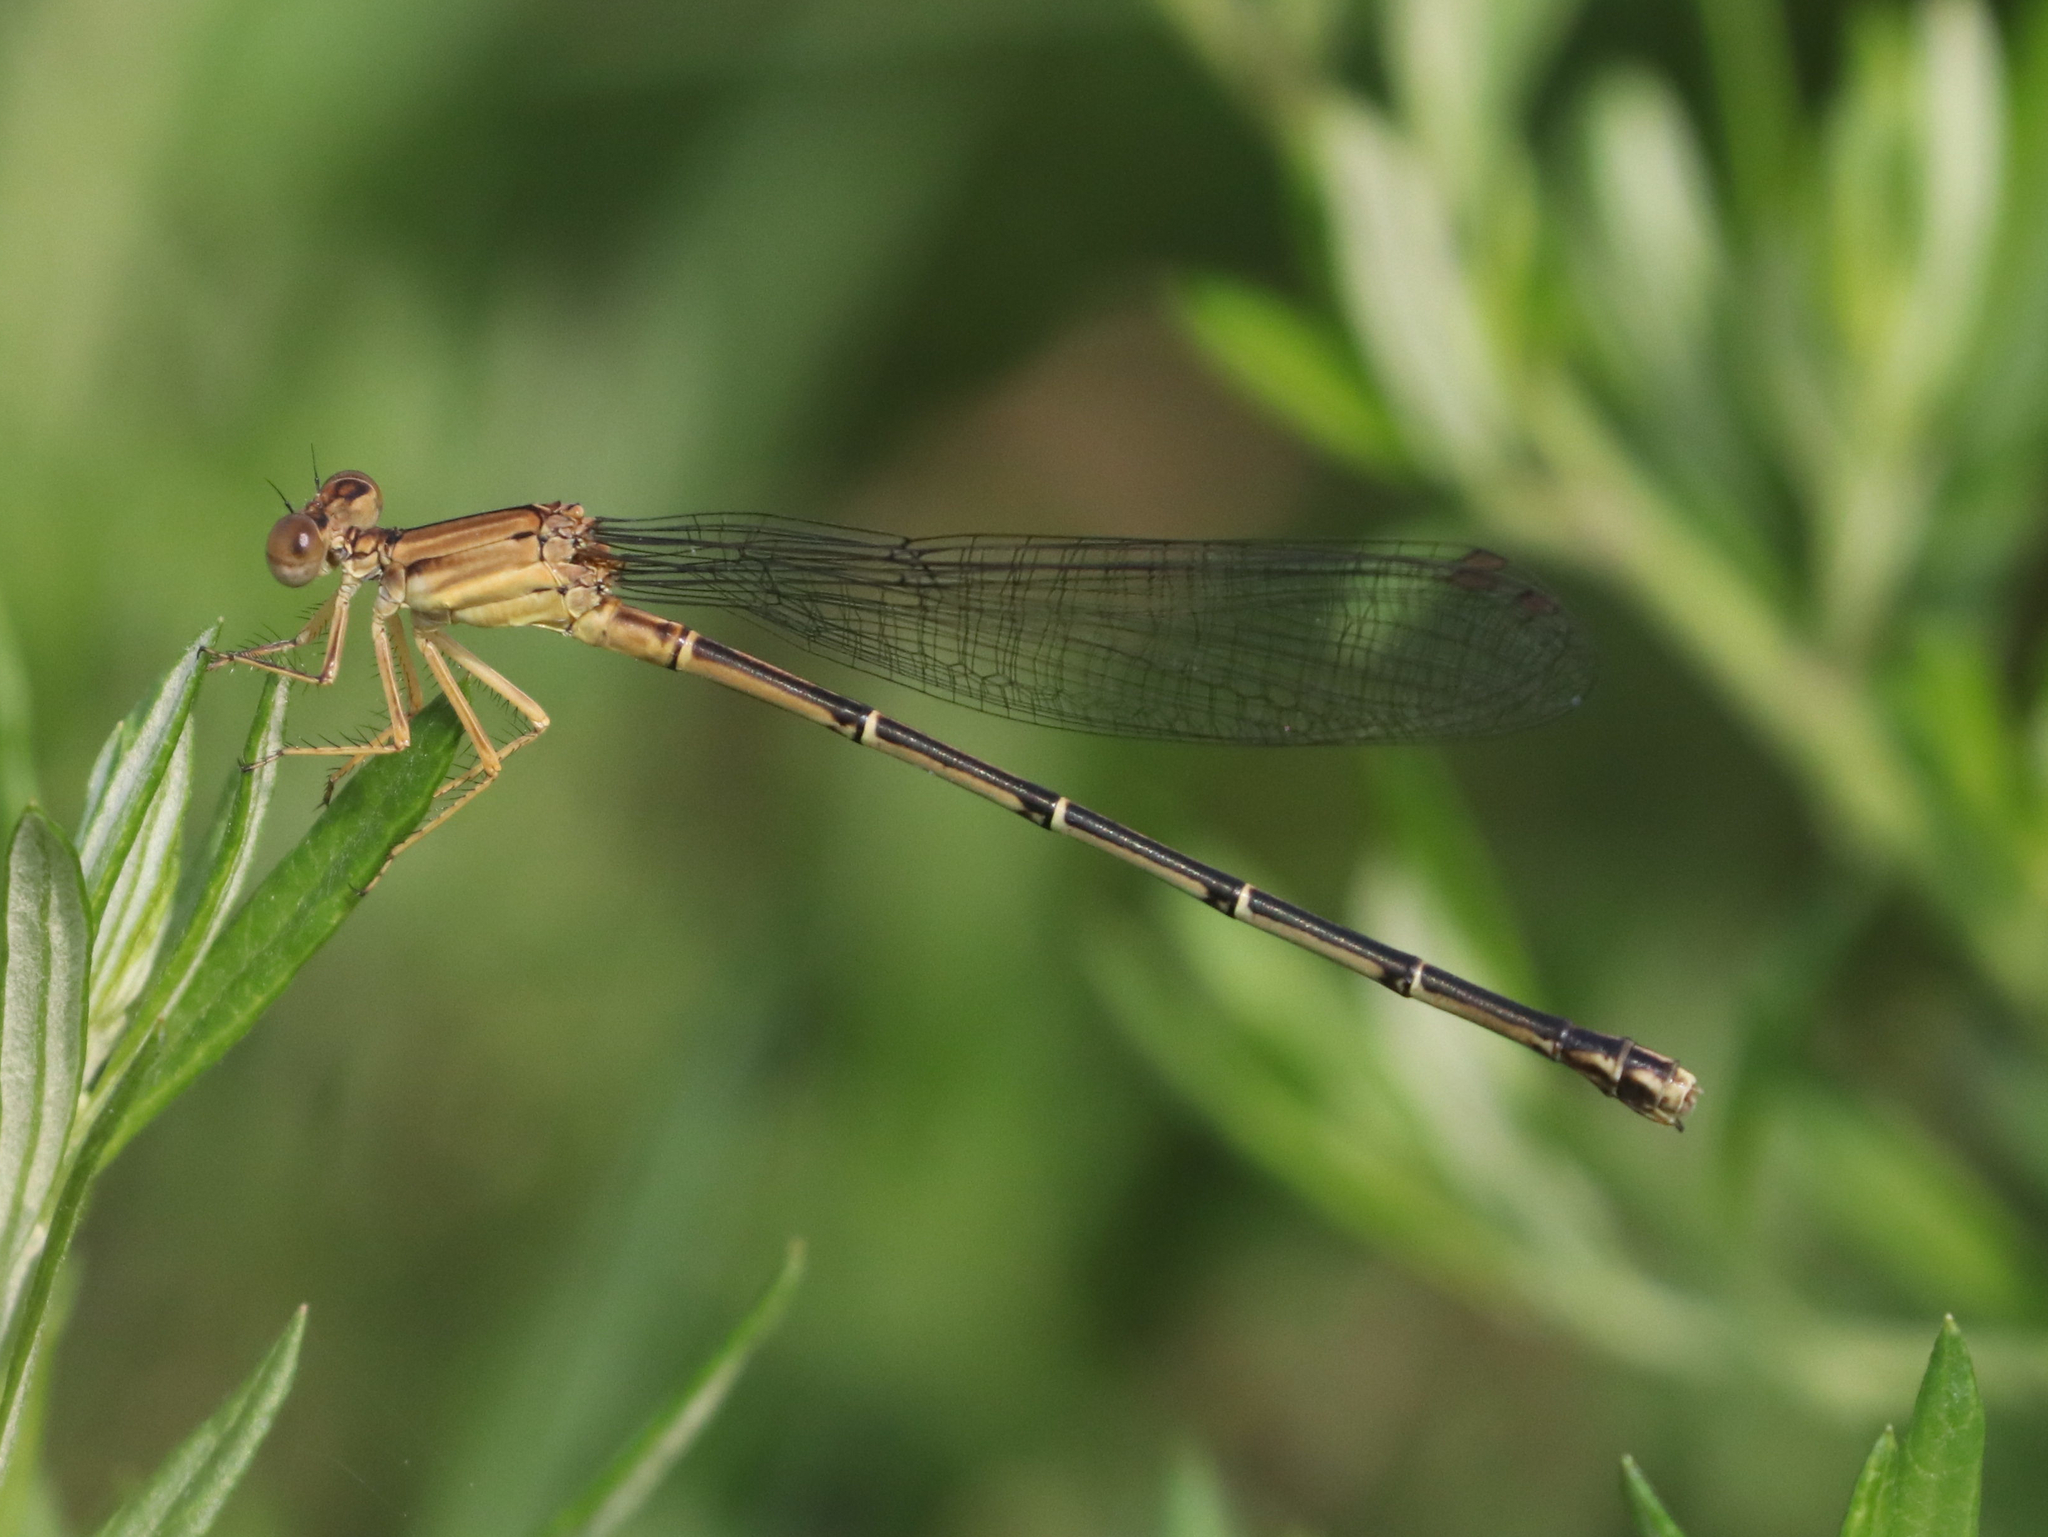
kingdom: Animalia
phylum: Arthropoda
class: Insecta
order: Odonata
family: Coenagrionidae
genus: Argia
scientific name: Argia apicalis
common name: Blue-fronted dancer
